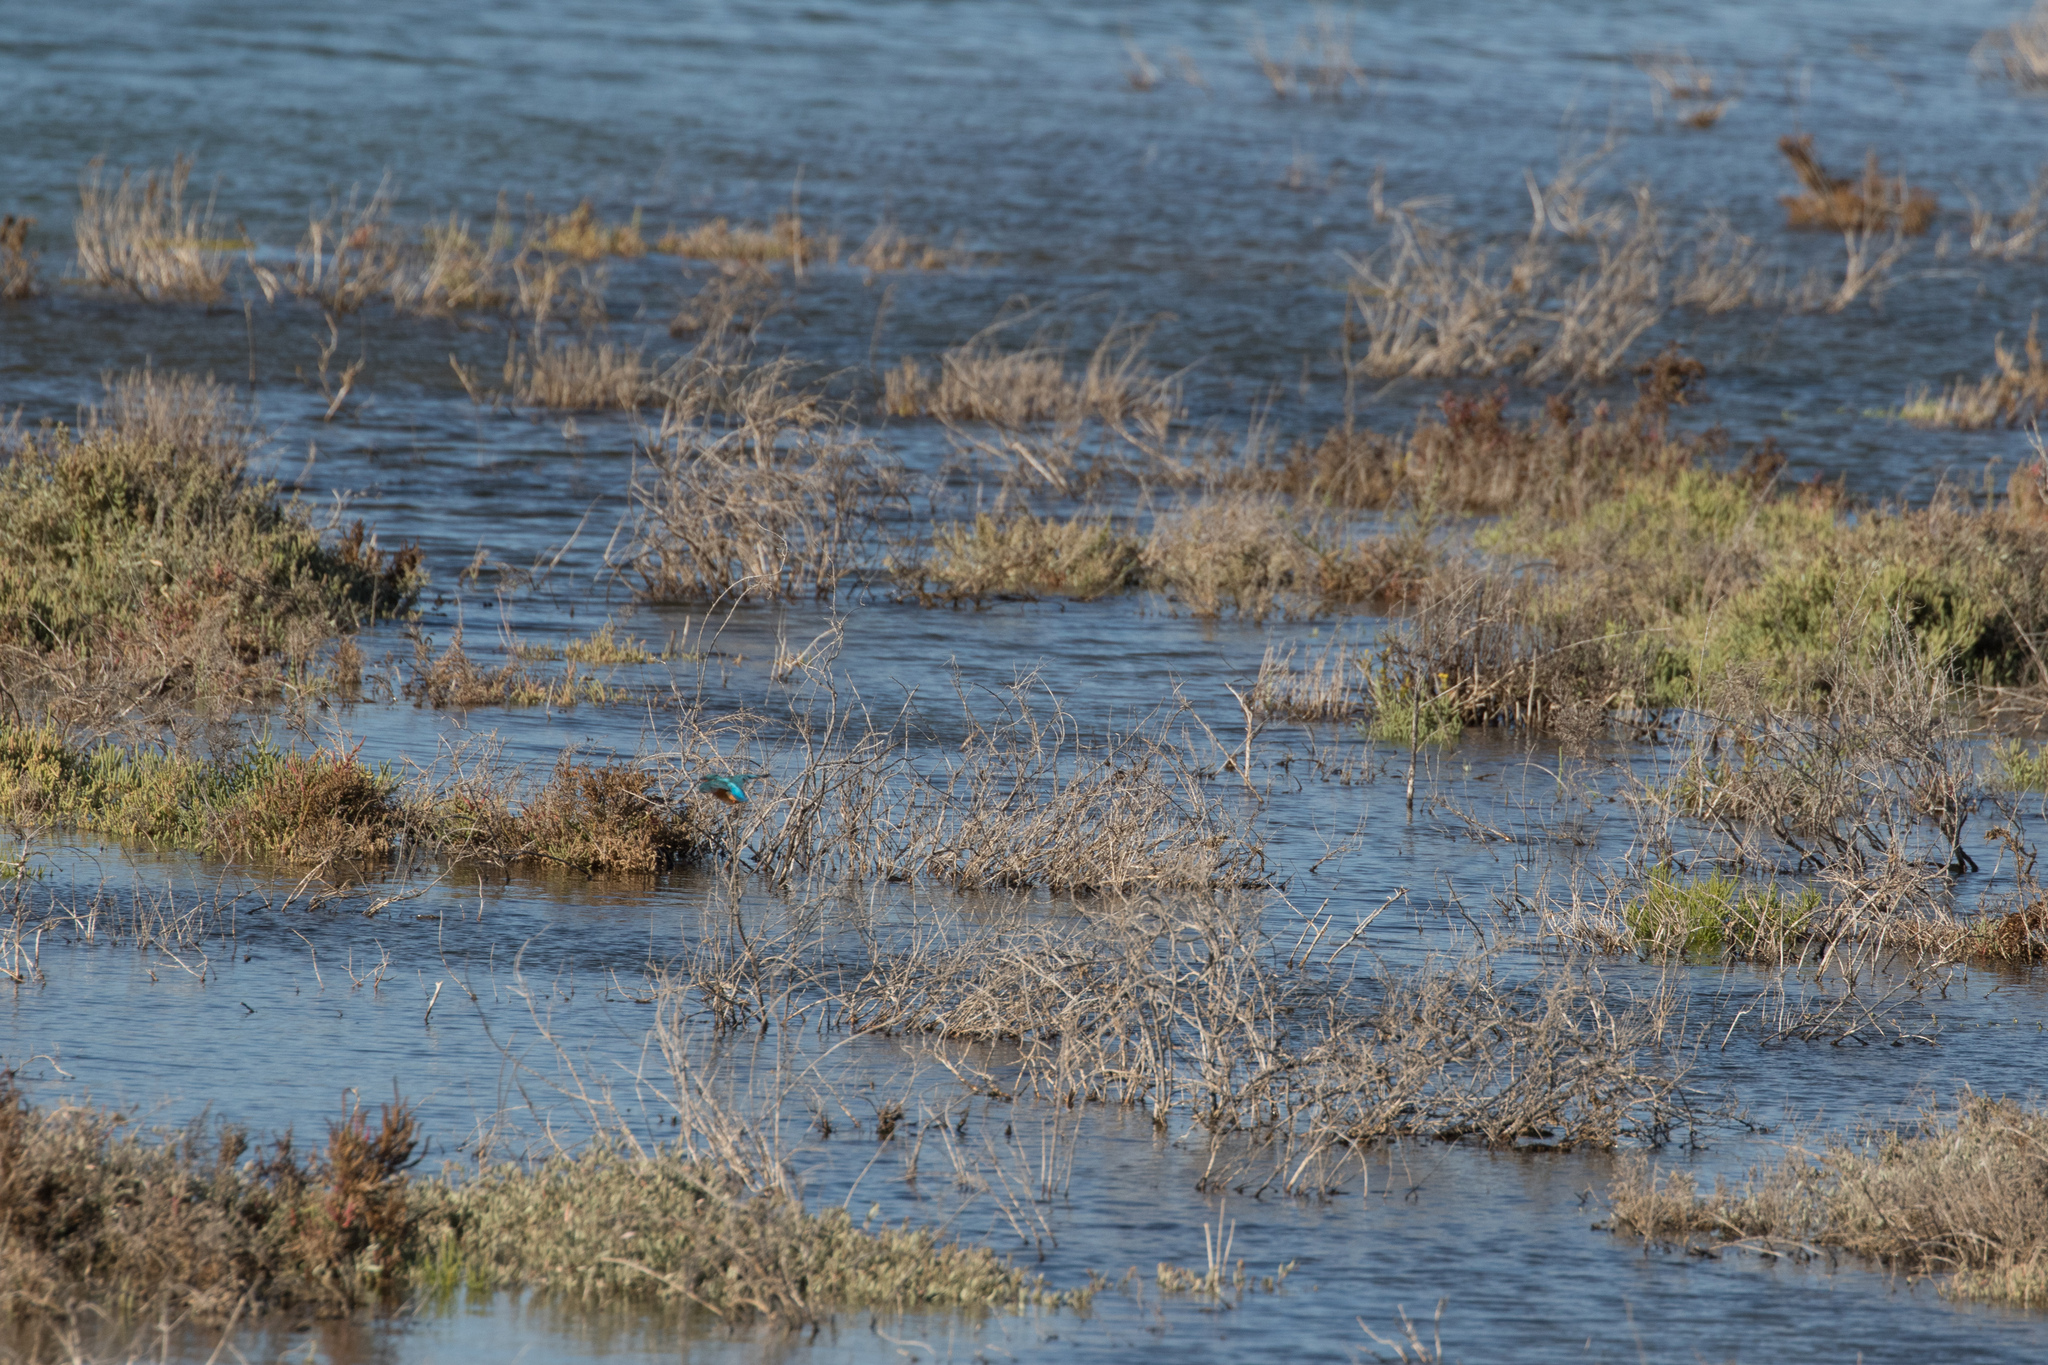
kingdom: Animalia
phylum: Chordata
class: Aves
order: Coraciiformes
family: Alcedinidae
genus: Alcedo
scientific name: Alcedo atthis
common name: Common kingfisher
